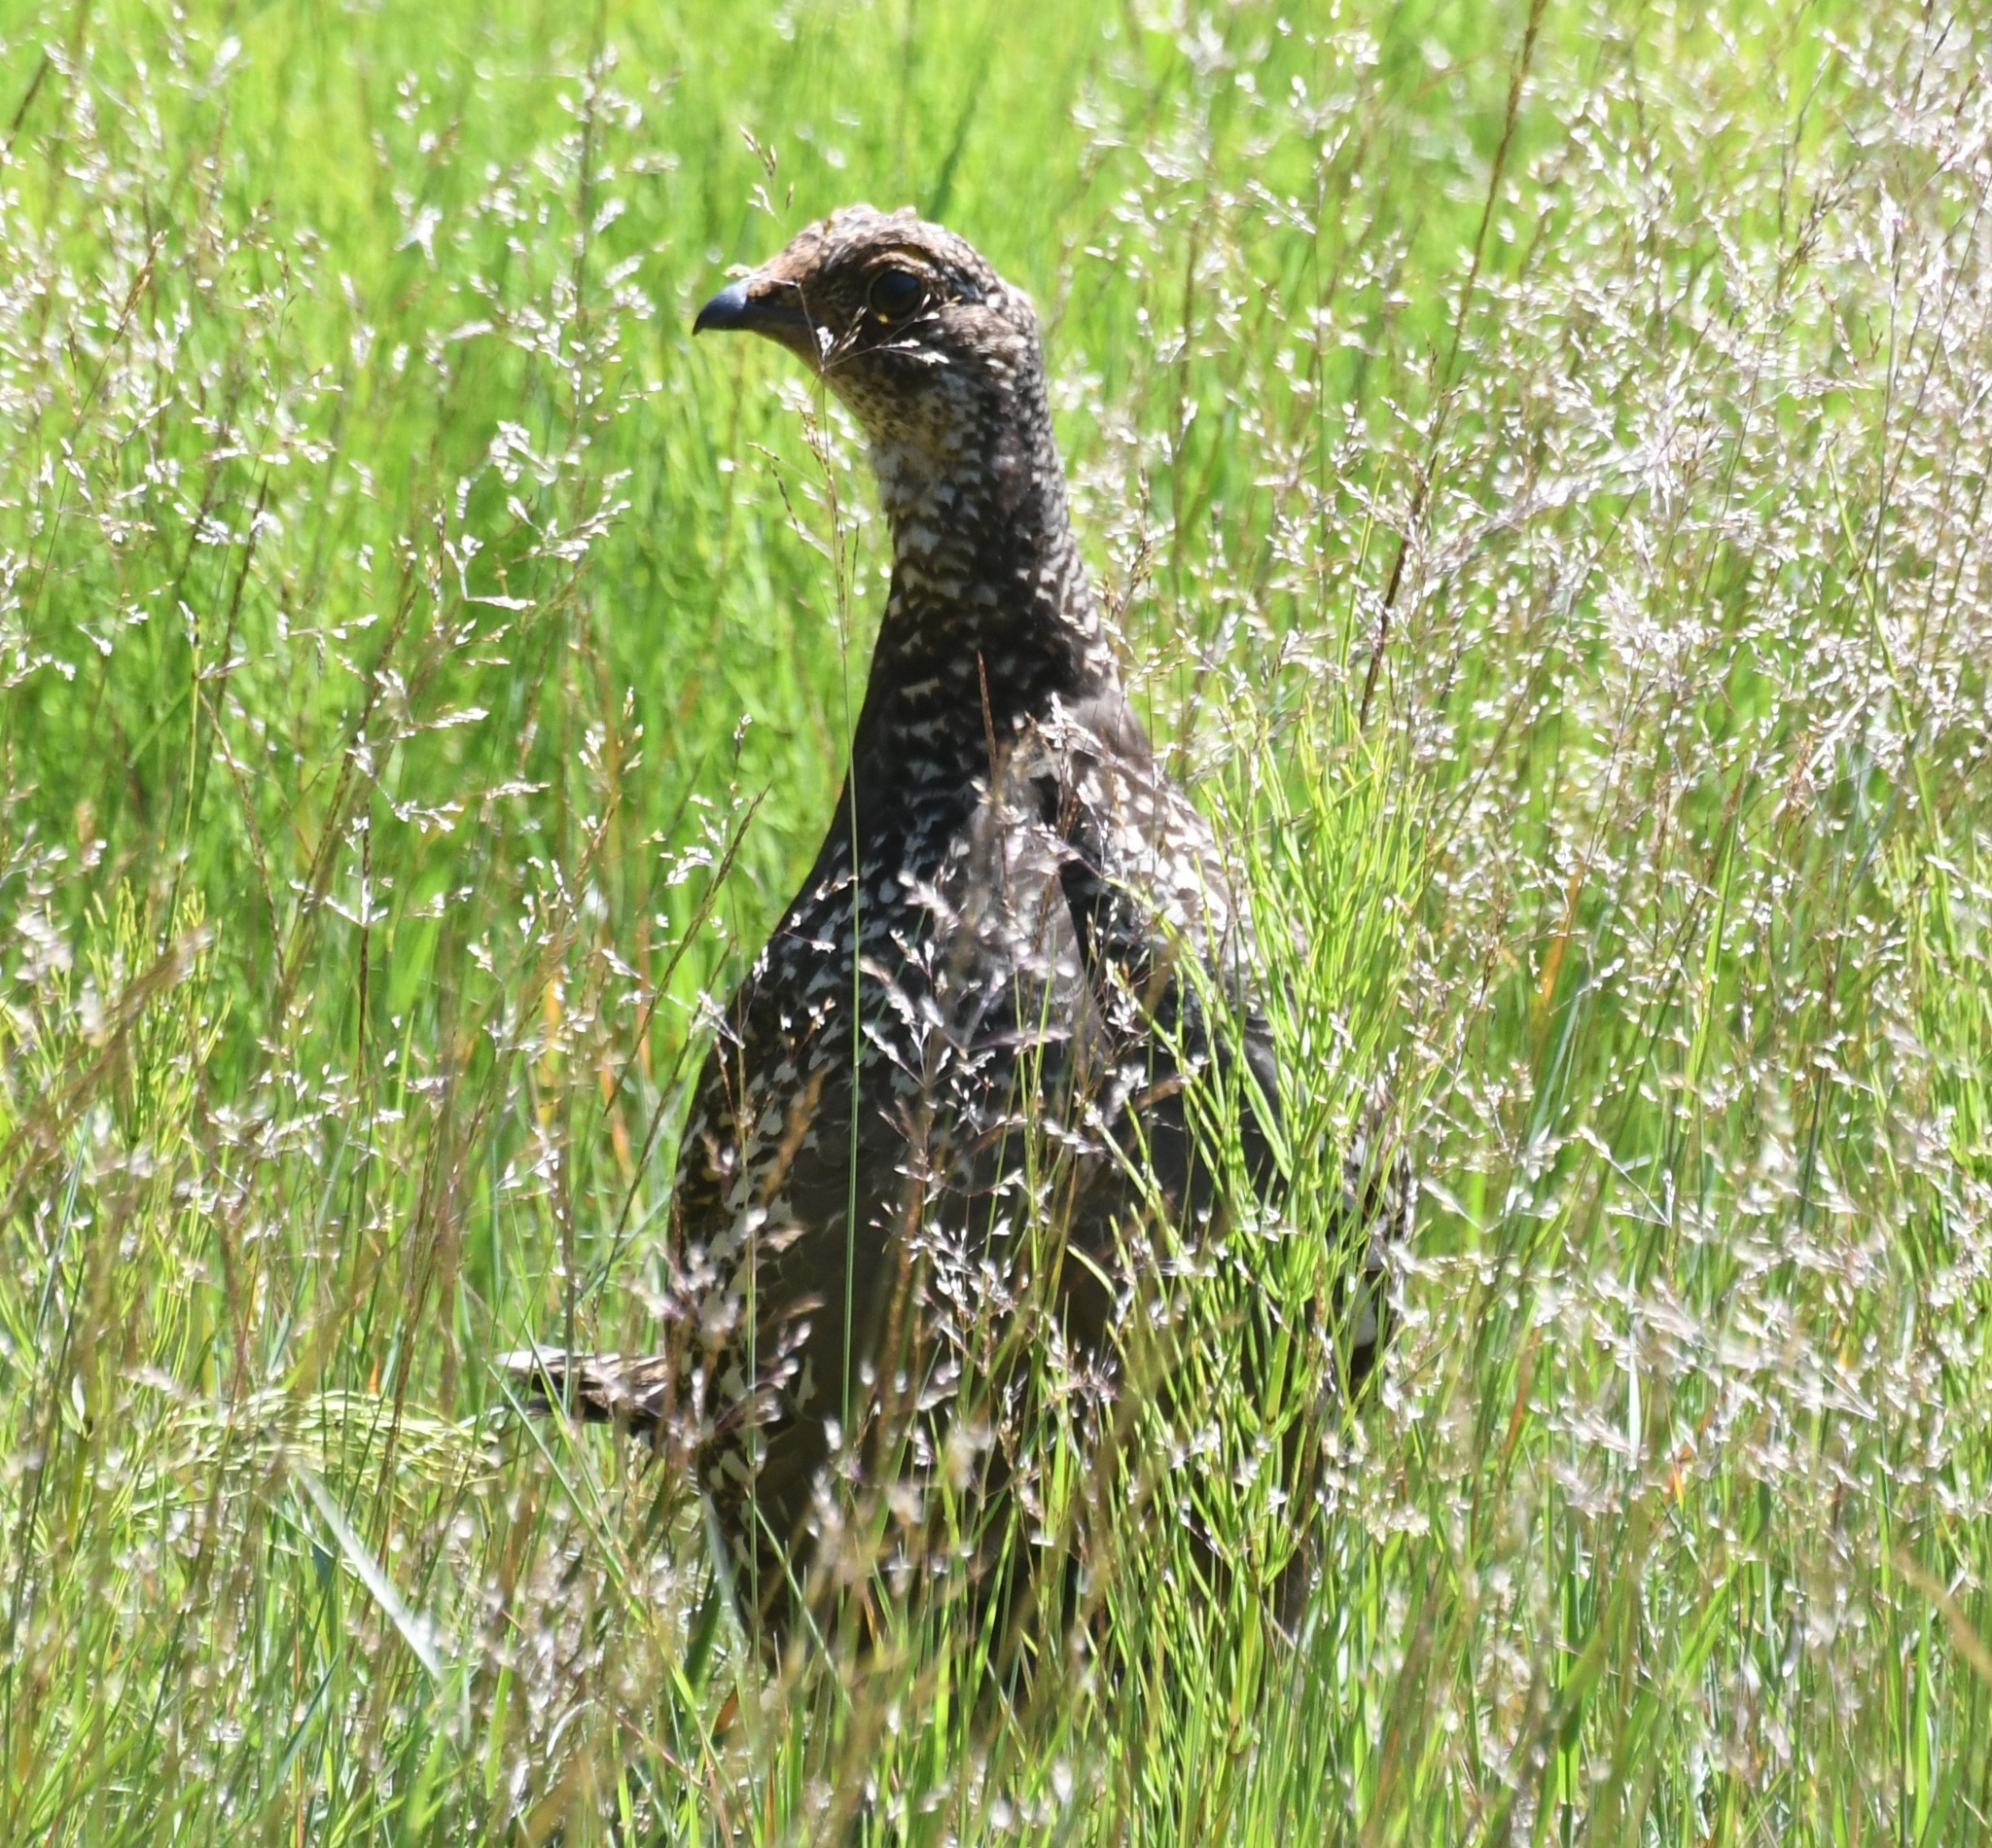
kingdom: Animalia
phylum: Chordata
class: Aves
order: Galliformes
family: Phasianidae
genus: Dendragapus
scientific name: Dendragapus fuliginosus
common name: Sooty grouse
